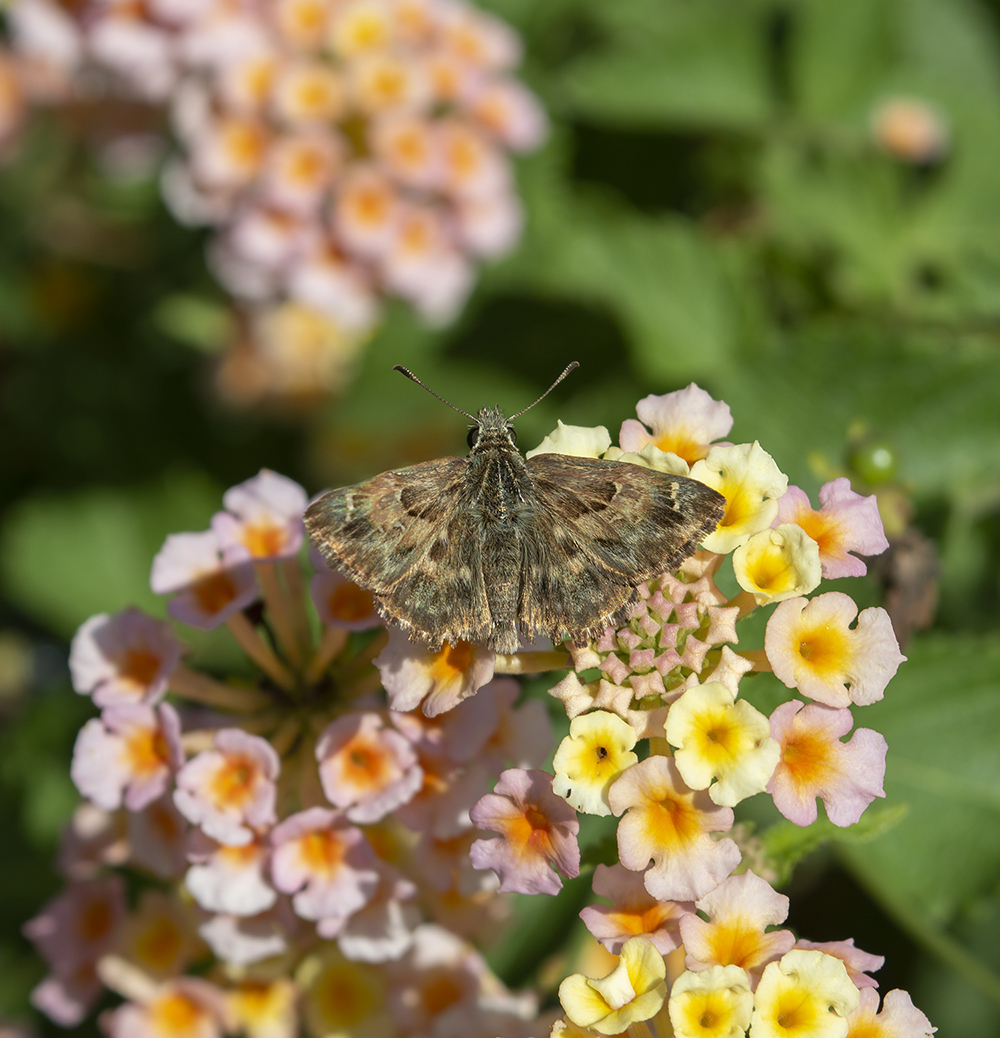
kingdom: Animalia
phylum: Arthropoda
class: Insecta
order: Lepidoptera
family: Hesperiidae
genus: Carcharodus
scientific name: Carcharodus alceae
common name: Mallow skipper
